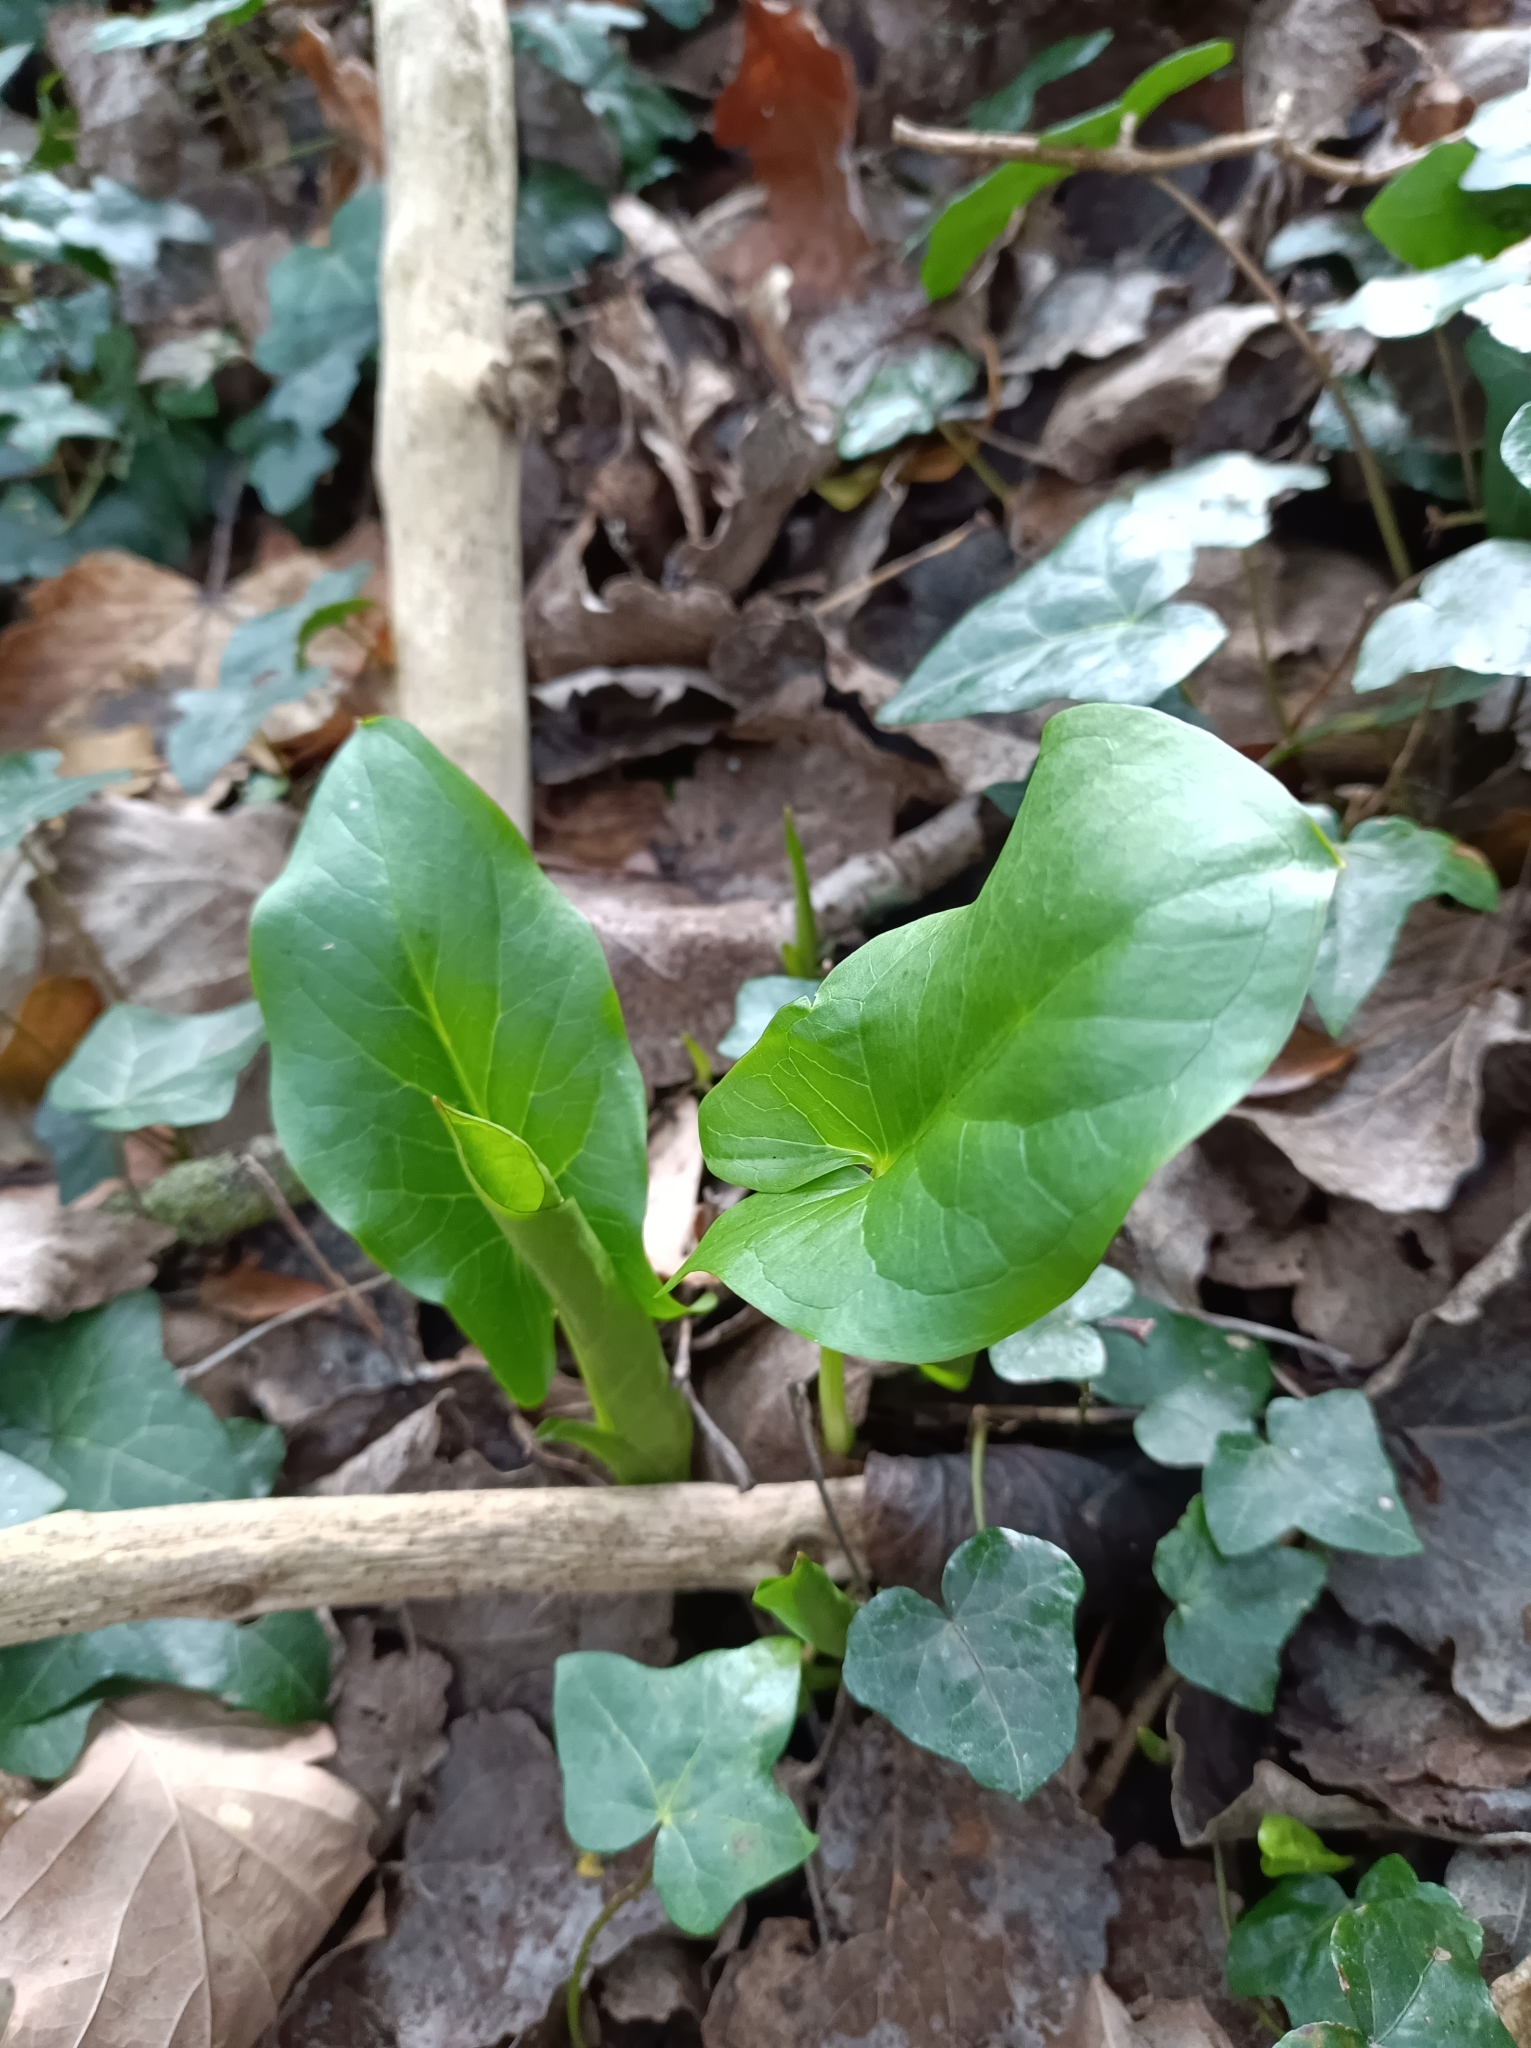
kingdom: Plantae
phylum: Tracheophyta
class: Liliopsida
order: Alismatales
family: Araceae
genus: Arum
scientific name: Arum maculatum
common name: Lords-and-ladies
